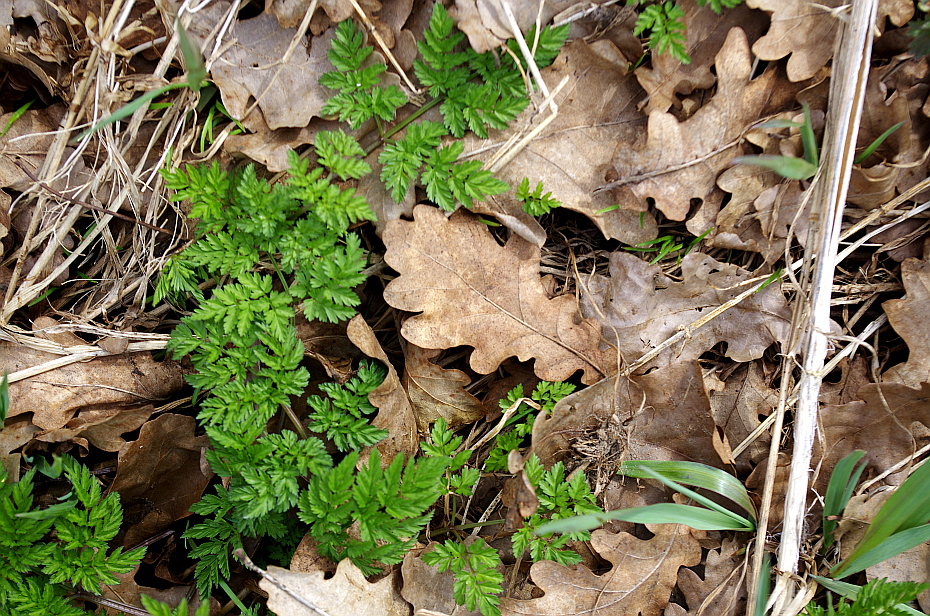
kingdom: Plantae
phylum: Tracheophyta
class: Magnoliopsida
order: Apiales
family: Apiaceae
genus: Anthriscus
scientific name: Anthriscus sylvestris
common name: Cow parsley
